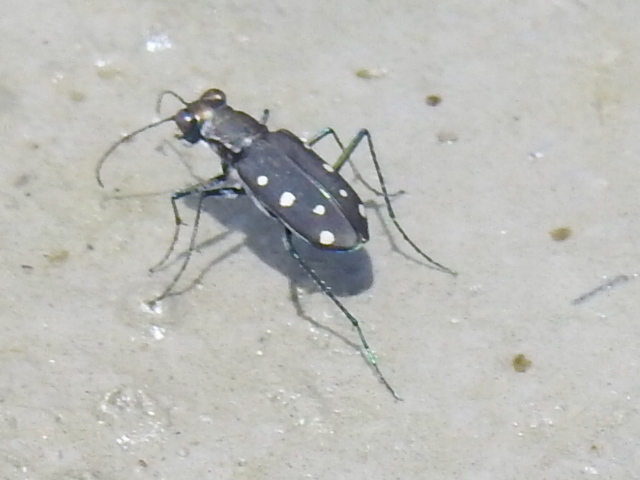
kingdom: Animalia
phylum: Arthropoda
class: Insecta
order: Coleoptera
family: Carabidae
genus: Cicindela
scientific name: Cicindela ocellata
